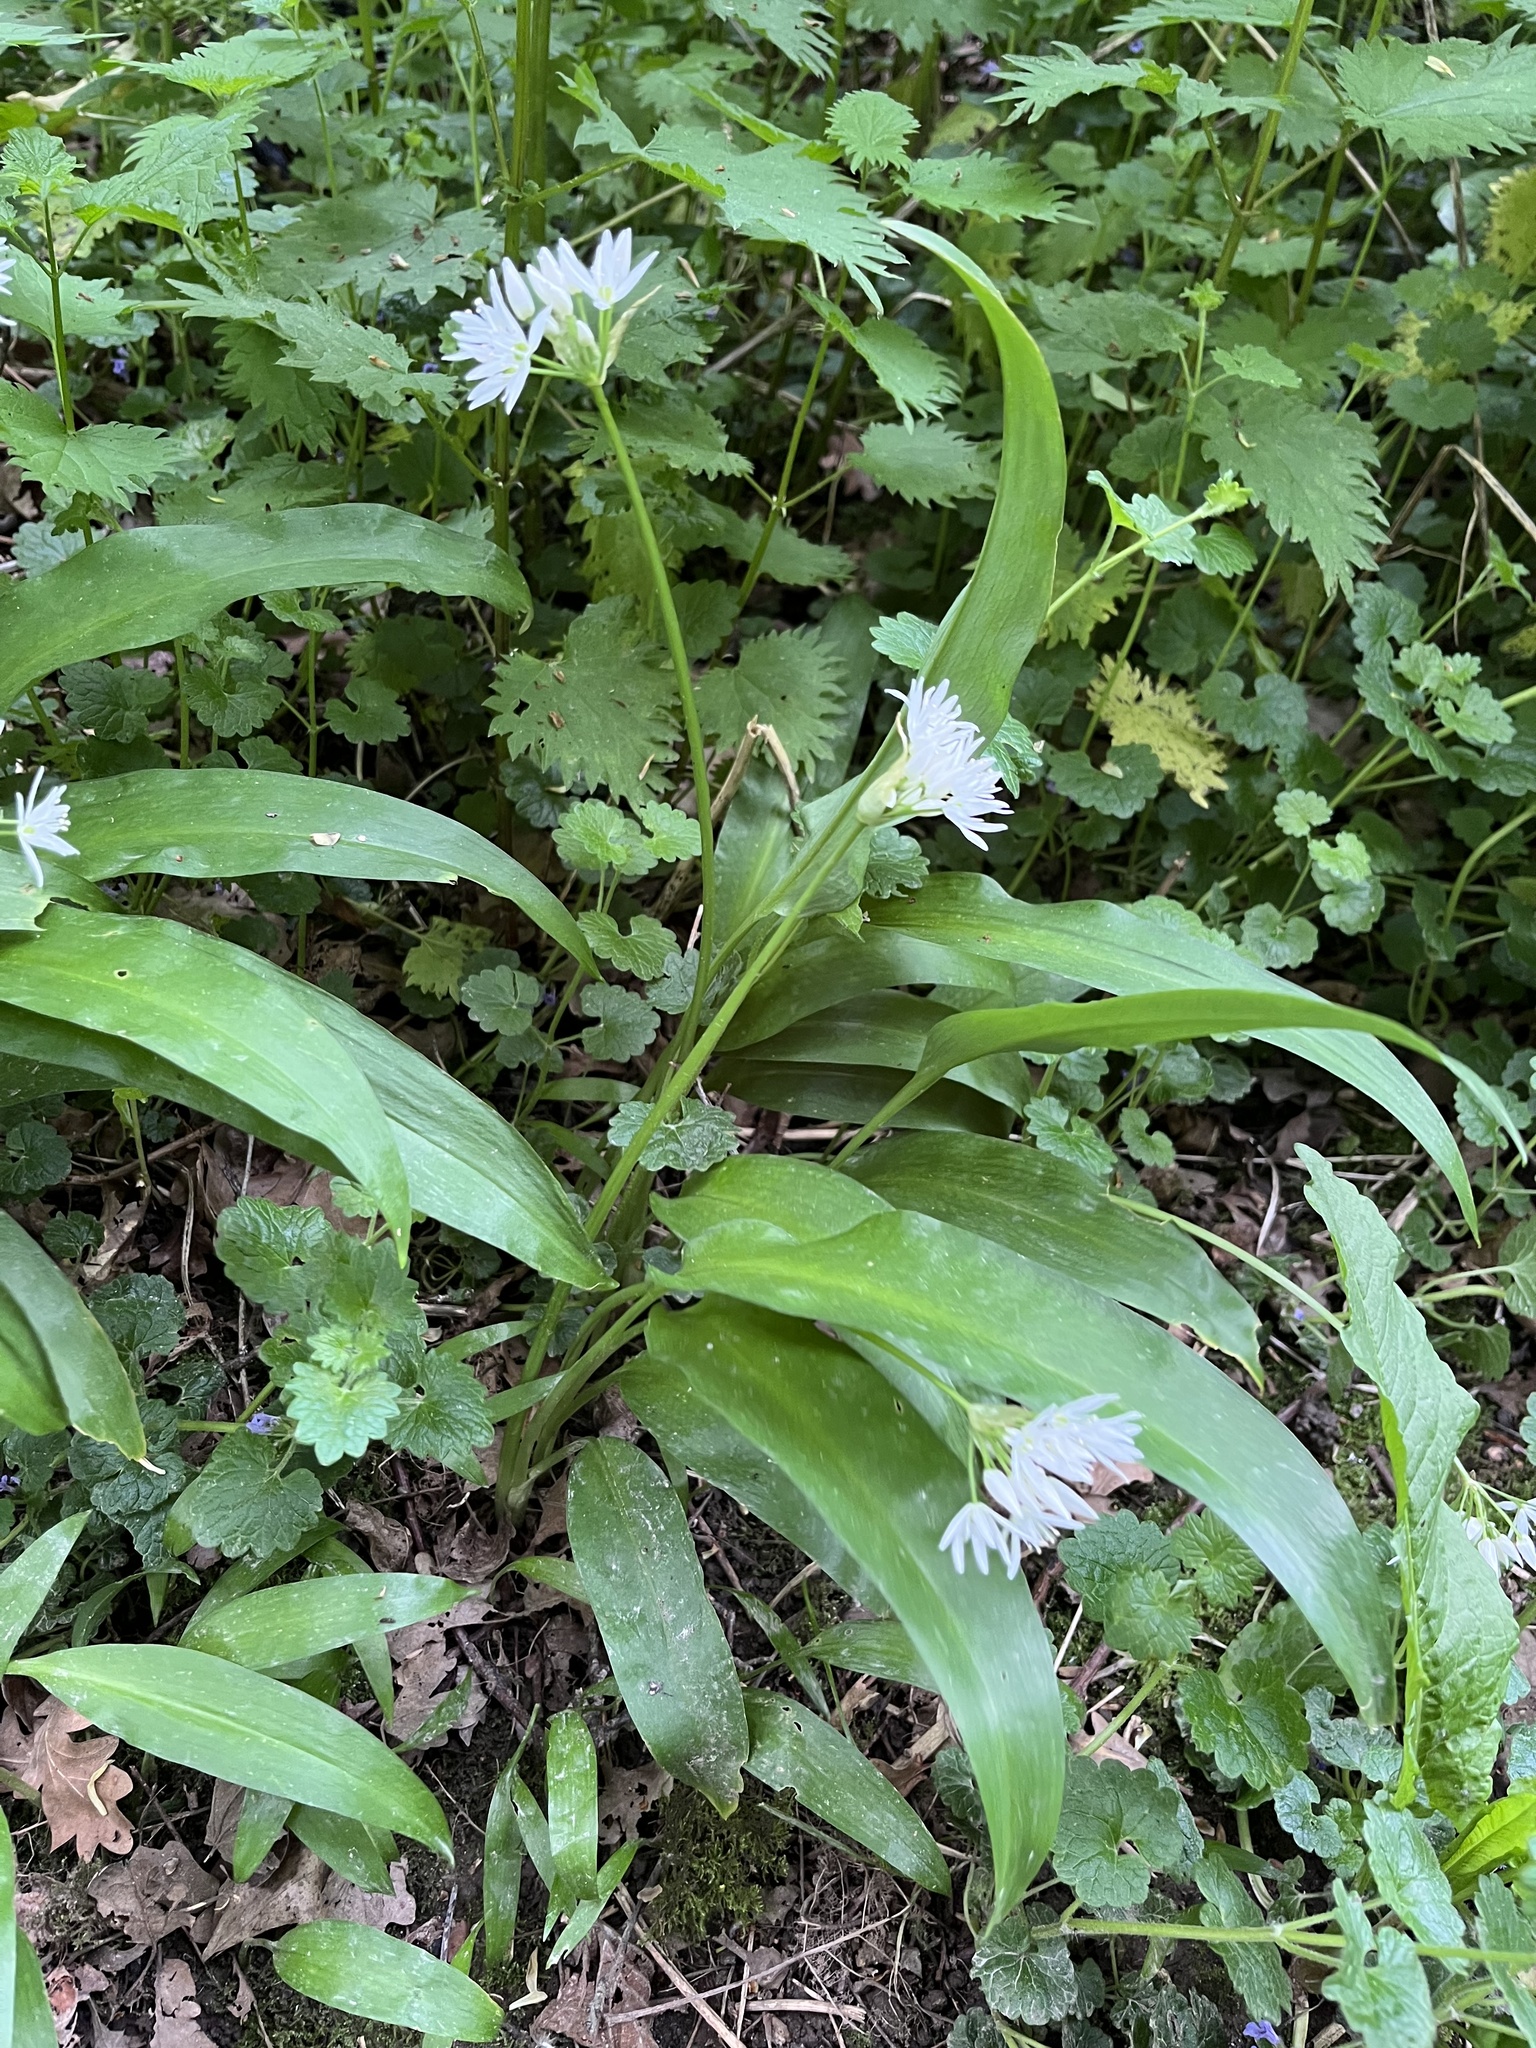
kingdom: Plantae
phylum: Tracheophyta
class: Liliopsida
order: Asparagales
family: Amaryllidaceae
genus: Allium
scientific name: Allium ursinum
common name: Ramsons
